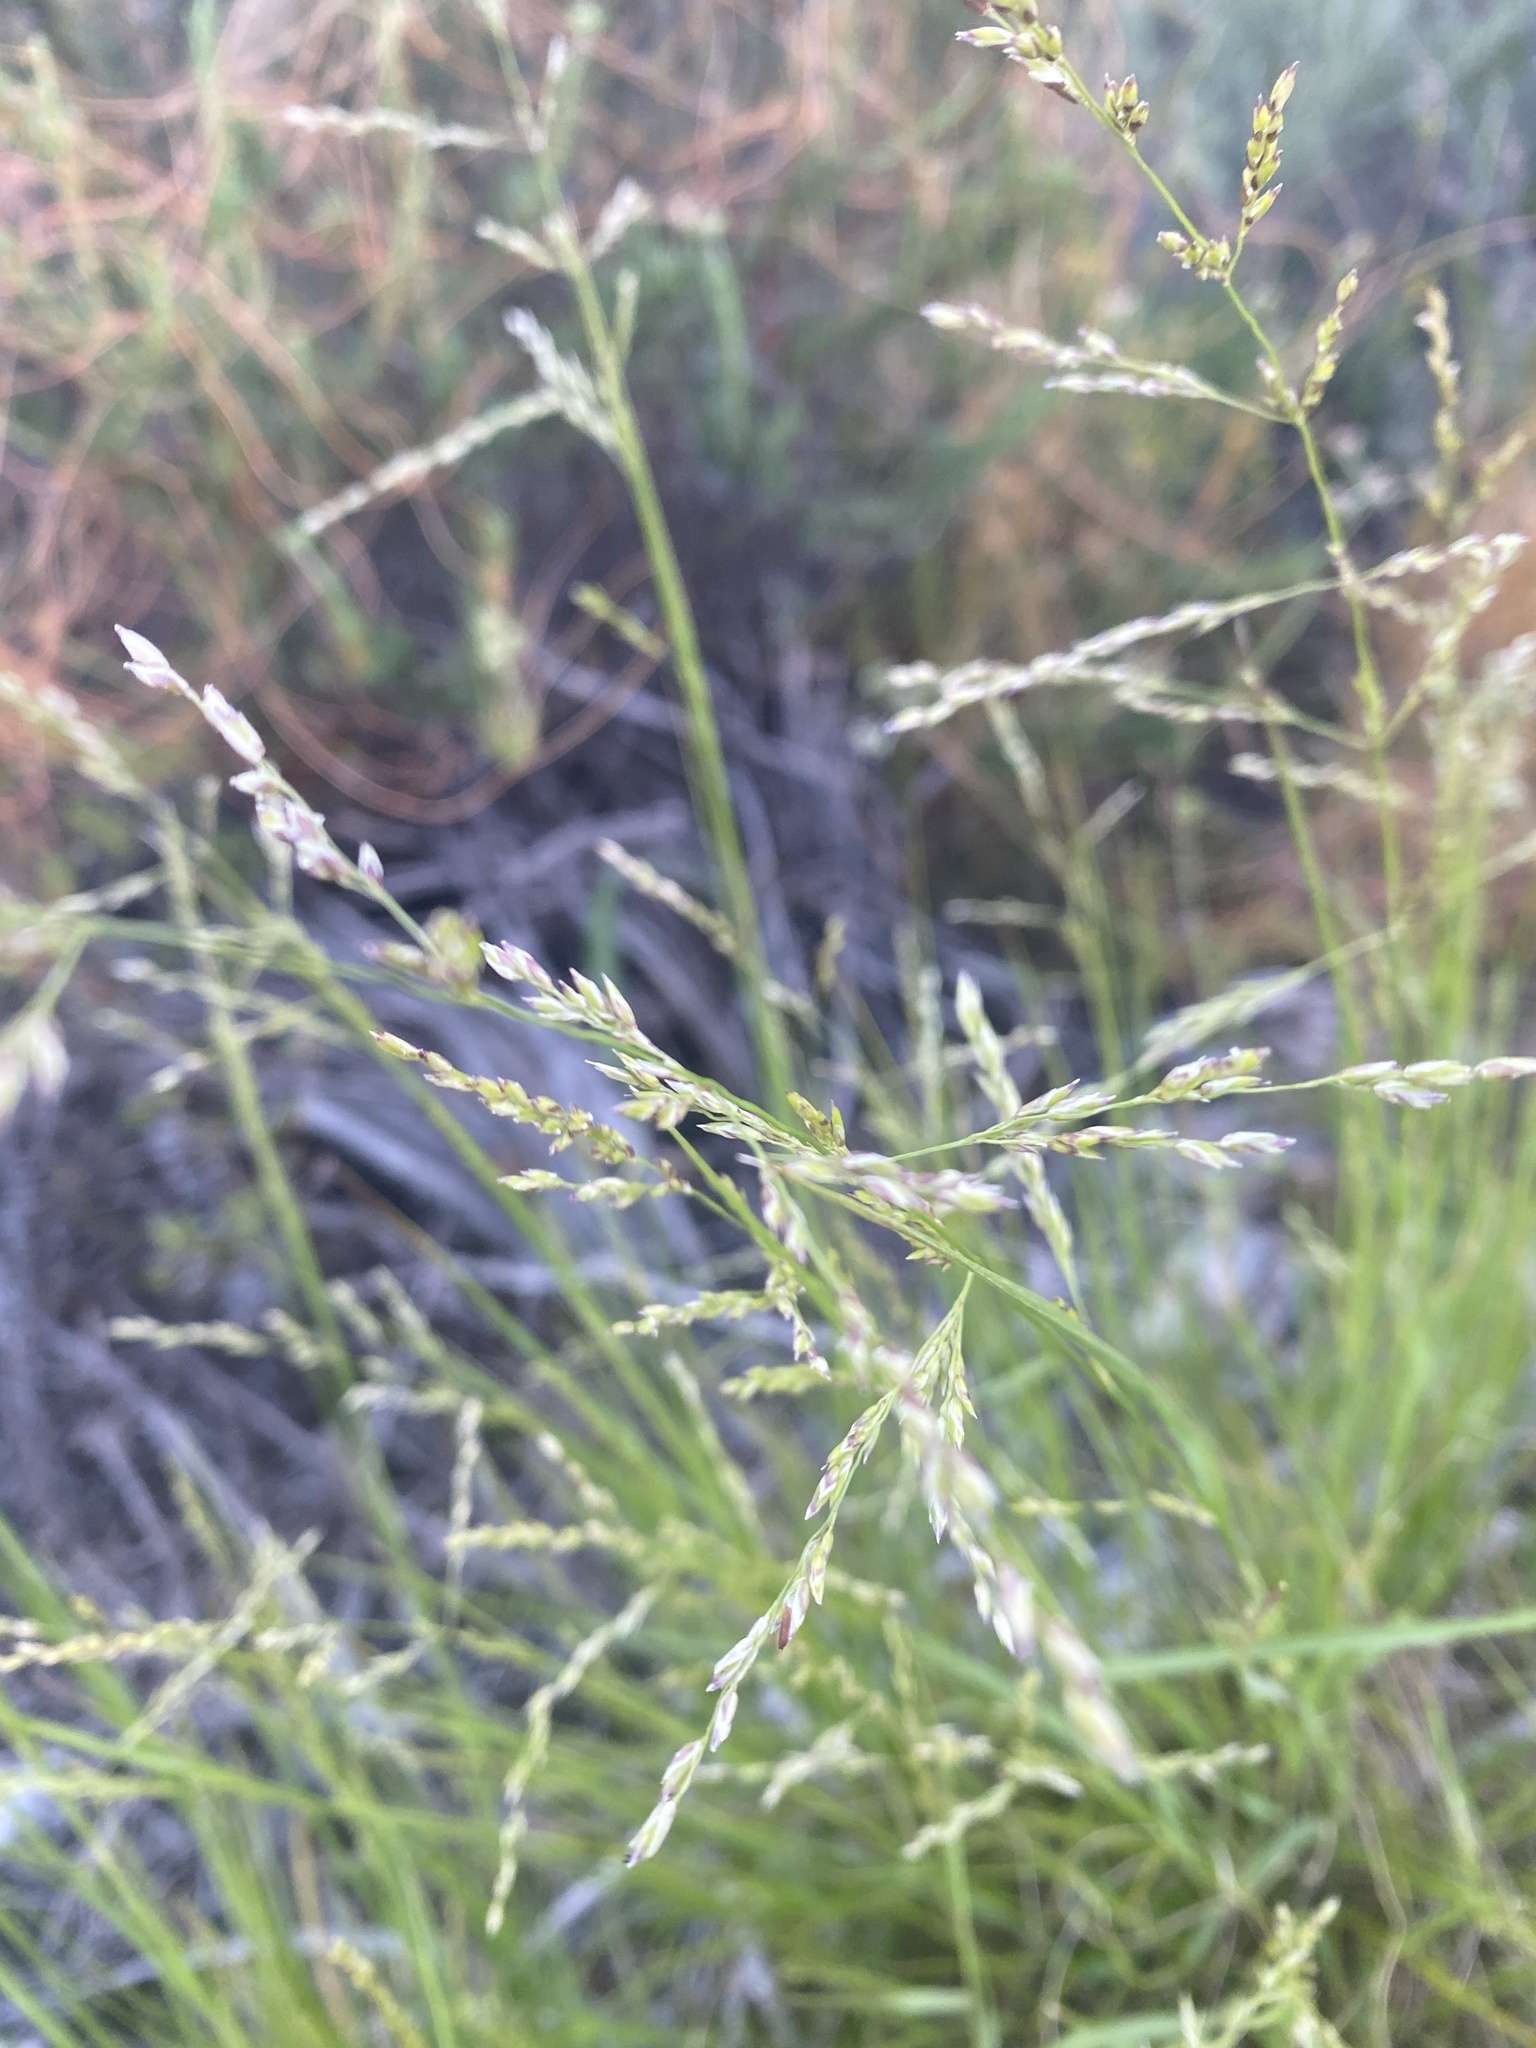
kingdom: Plantae
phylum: Tracheophyta
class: Liliopsida
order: Poales
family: Poaceae
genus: Melica
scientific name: Melica imperfecta
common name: California melic
